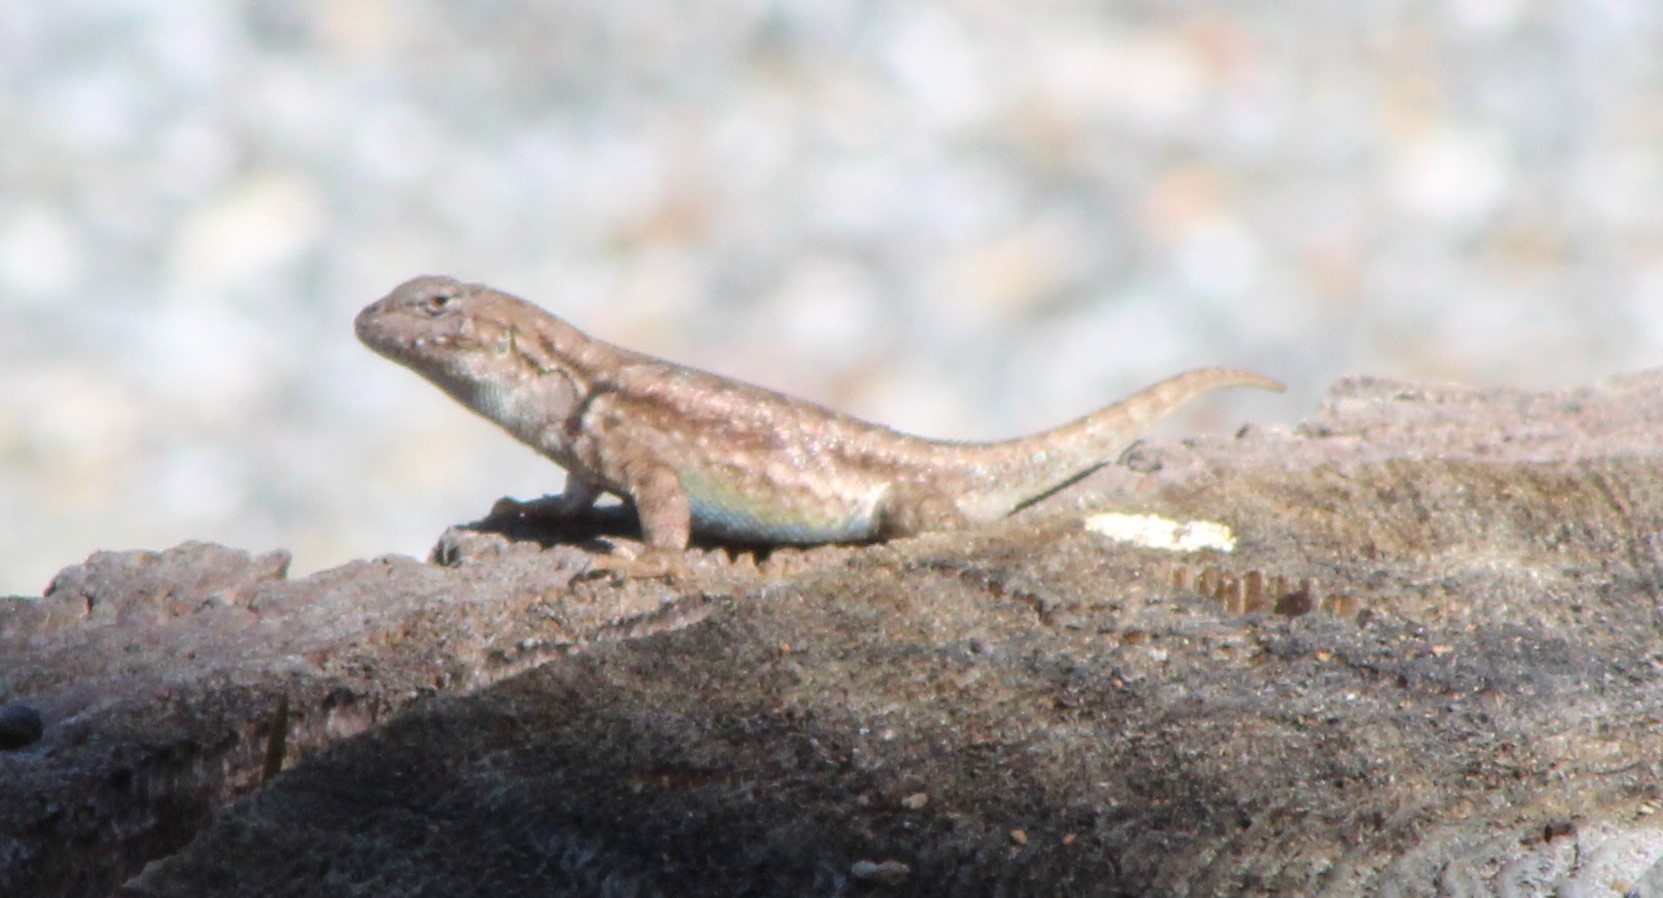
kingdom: Animalia
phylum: Chordata
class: Squamata
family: Phrynosomatidae
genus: Sceloporus
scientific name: Sceloporus graciosus
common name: Sagebrush lizard
